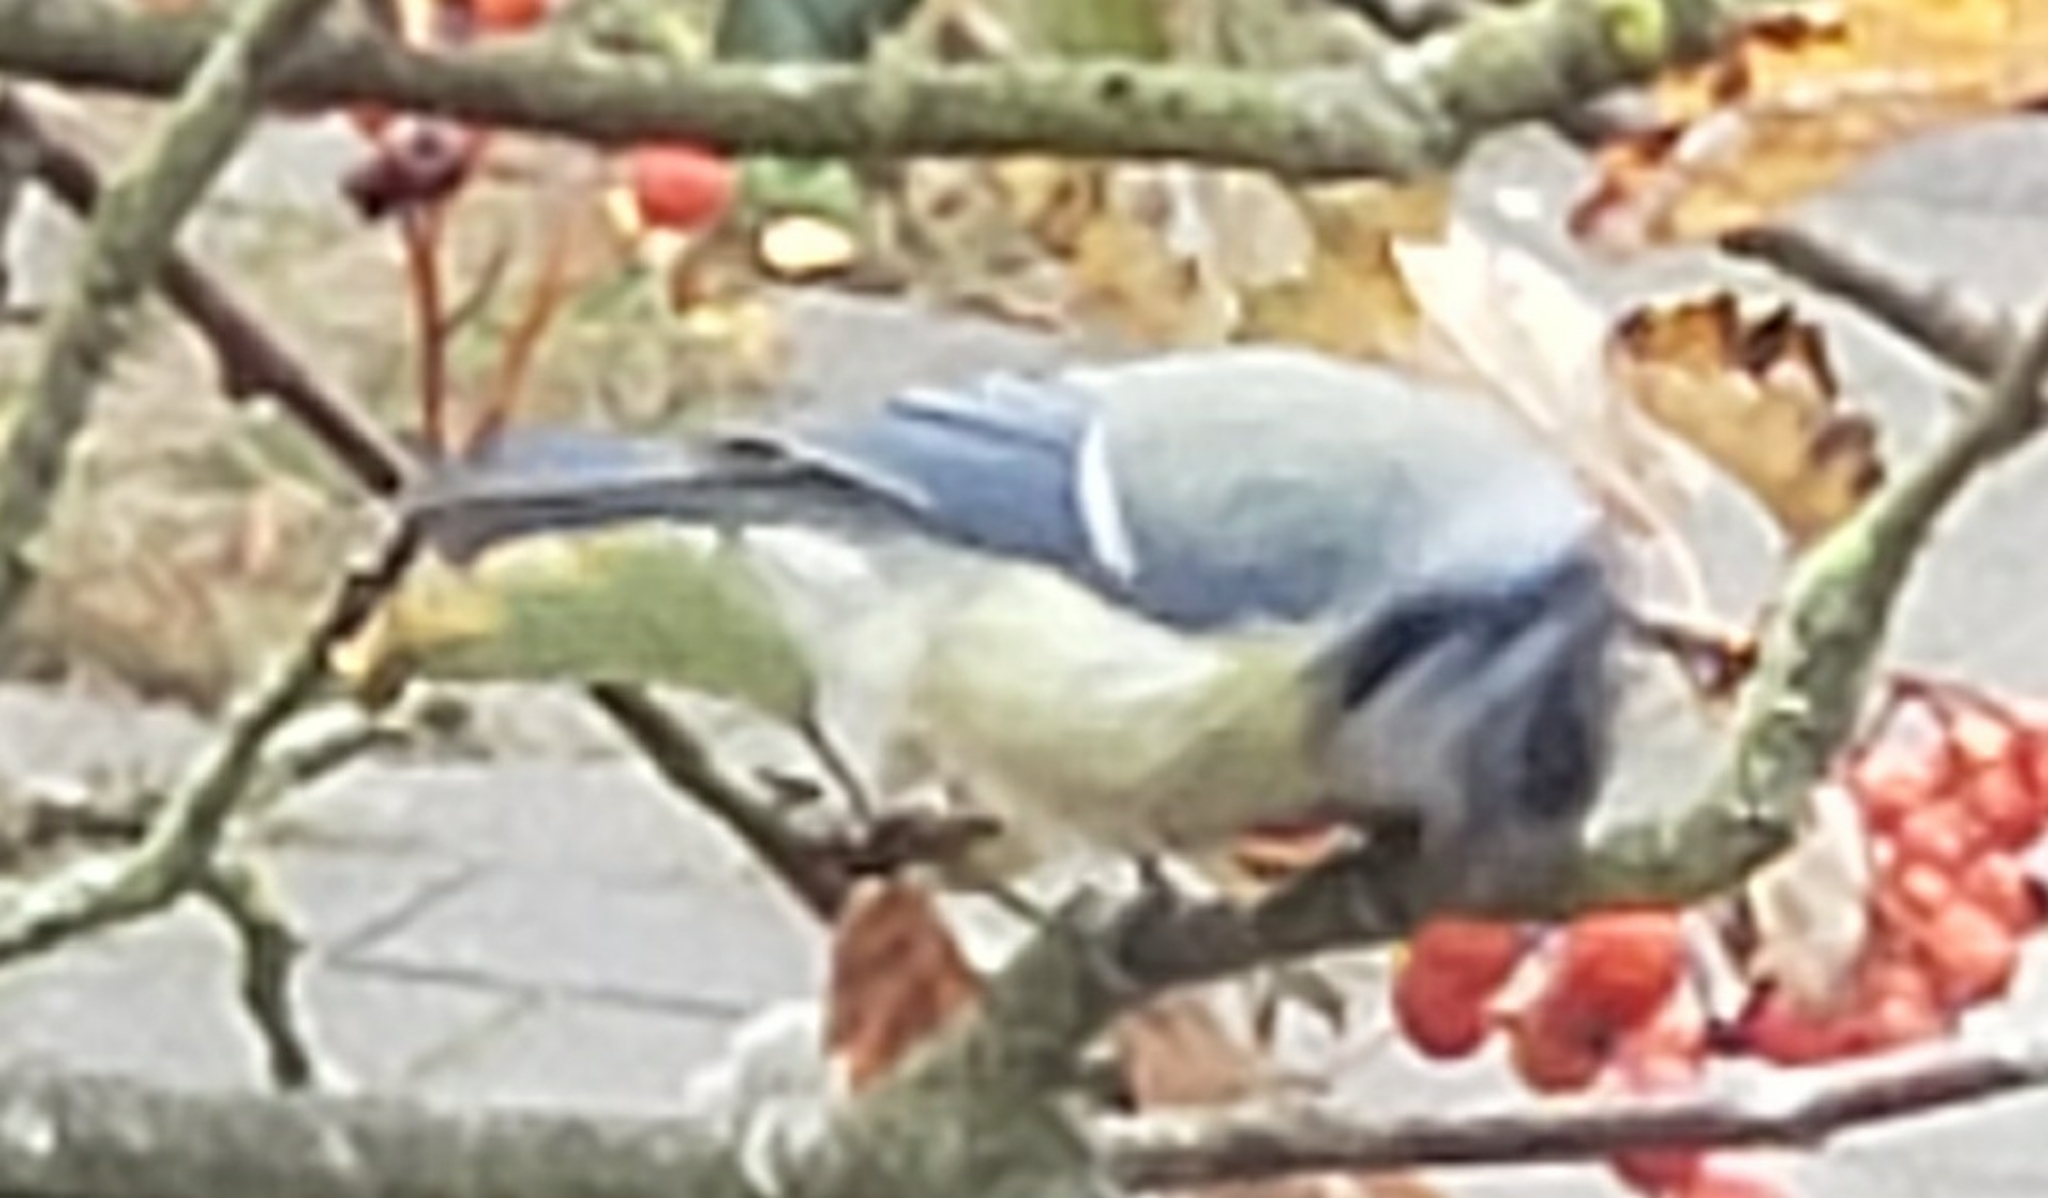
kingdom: Animalia
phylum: Chordata
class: Aves
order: Passeriformes
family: Paridae
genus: Cyanistes
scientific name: Cyanistes caeruleus
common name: Eurasian blue tit
